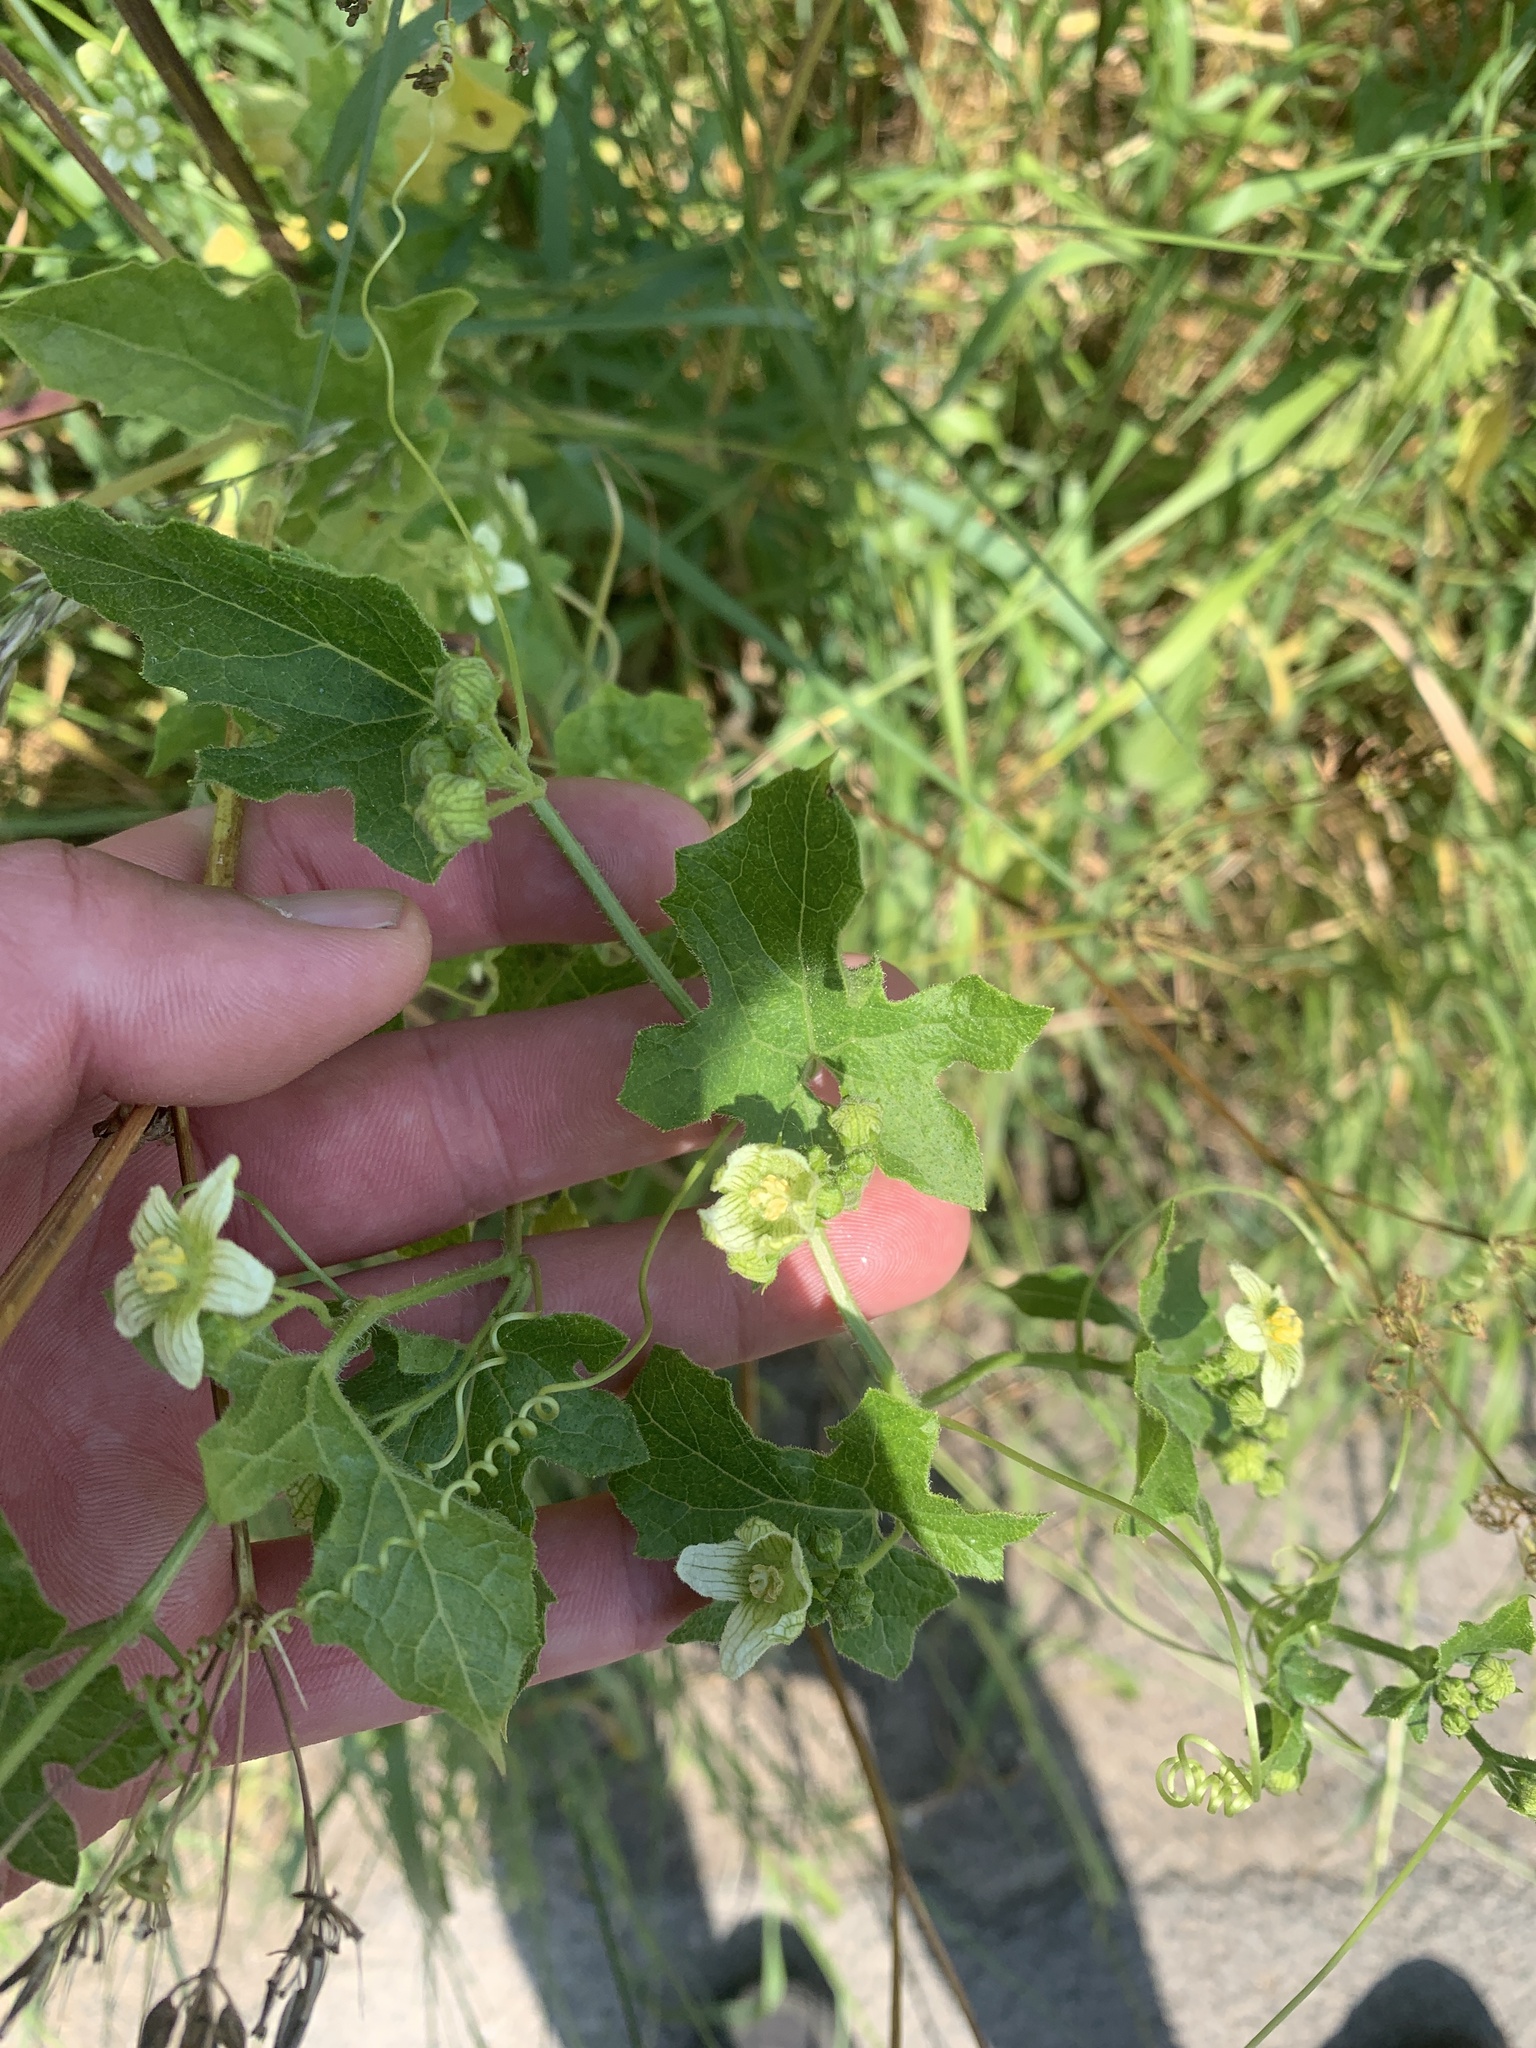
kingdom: Plantae
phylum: Tracheophyta
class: Magnoliopsida
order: Cucurbitales
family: Cucurbitaceae
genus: Bryonia
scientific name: Bryonia cretica
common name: Cretan bryony
